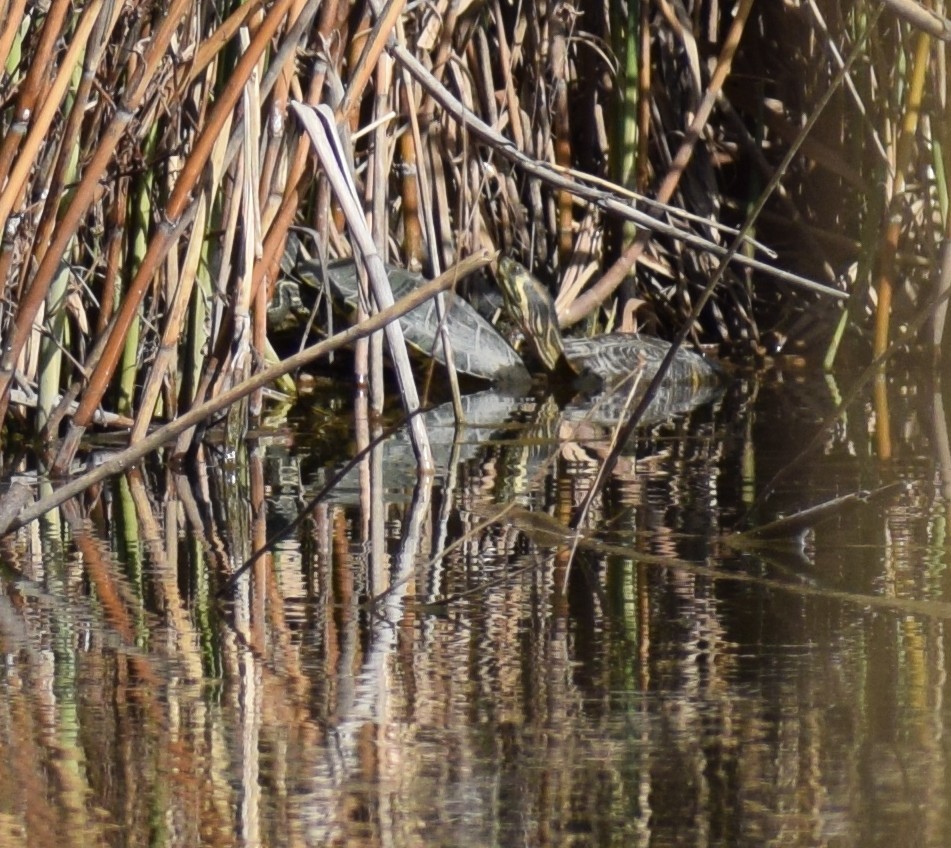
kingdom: Animalia
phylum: Chordata
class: Testudines
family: Emydidae
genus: Trachemys
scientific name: Trachemys scripta
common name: Slider
